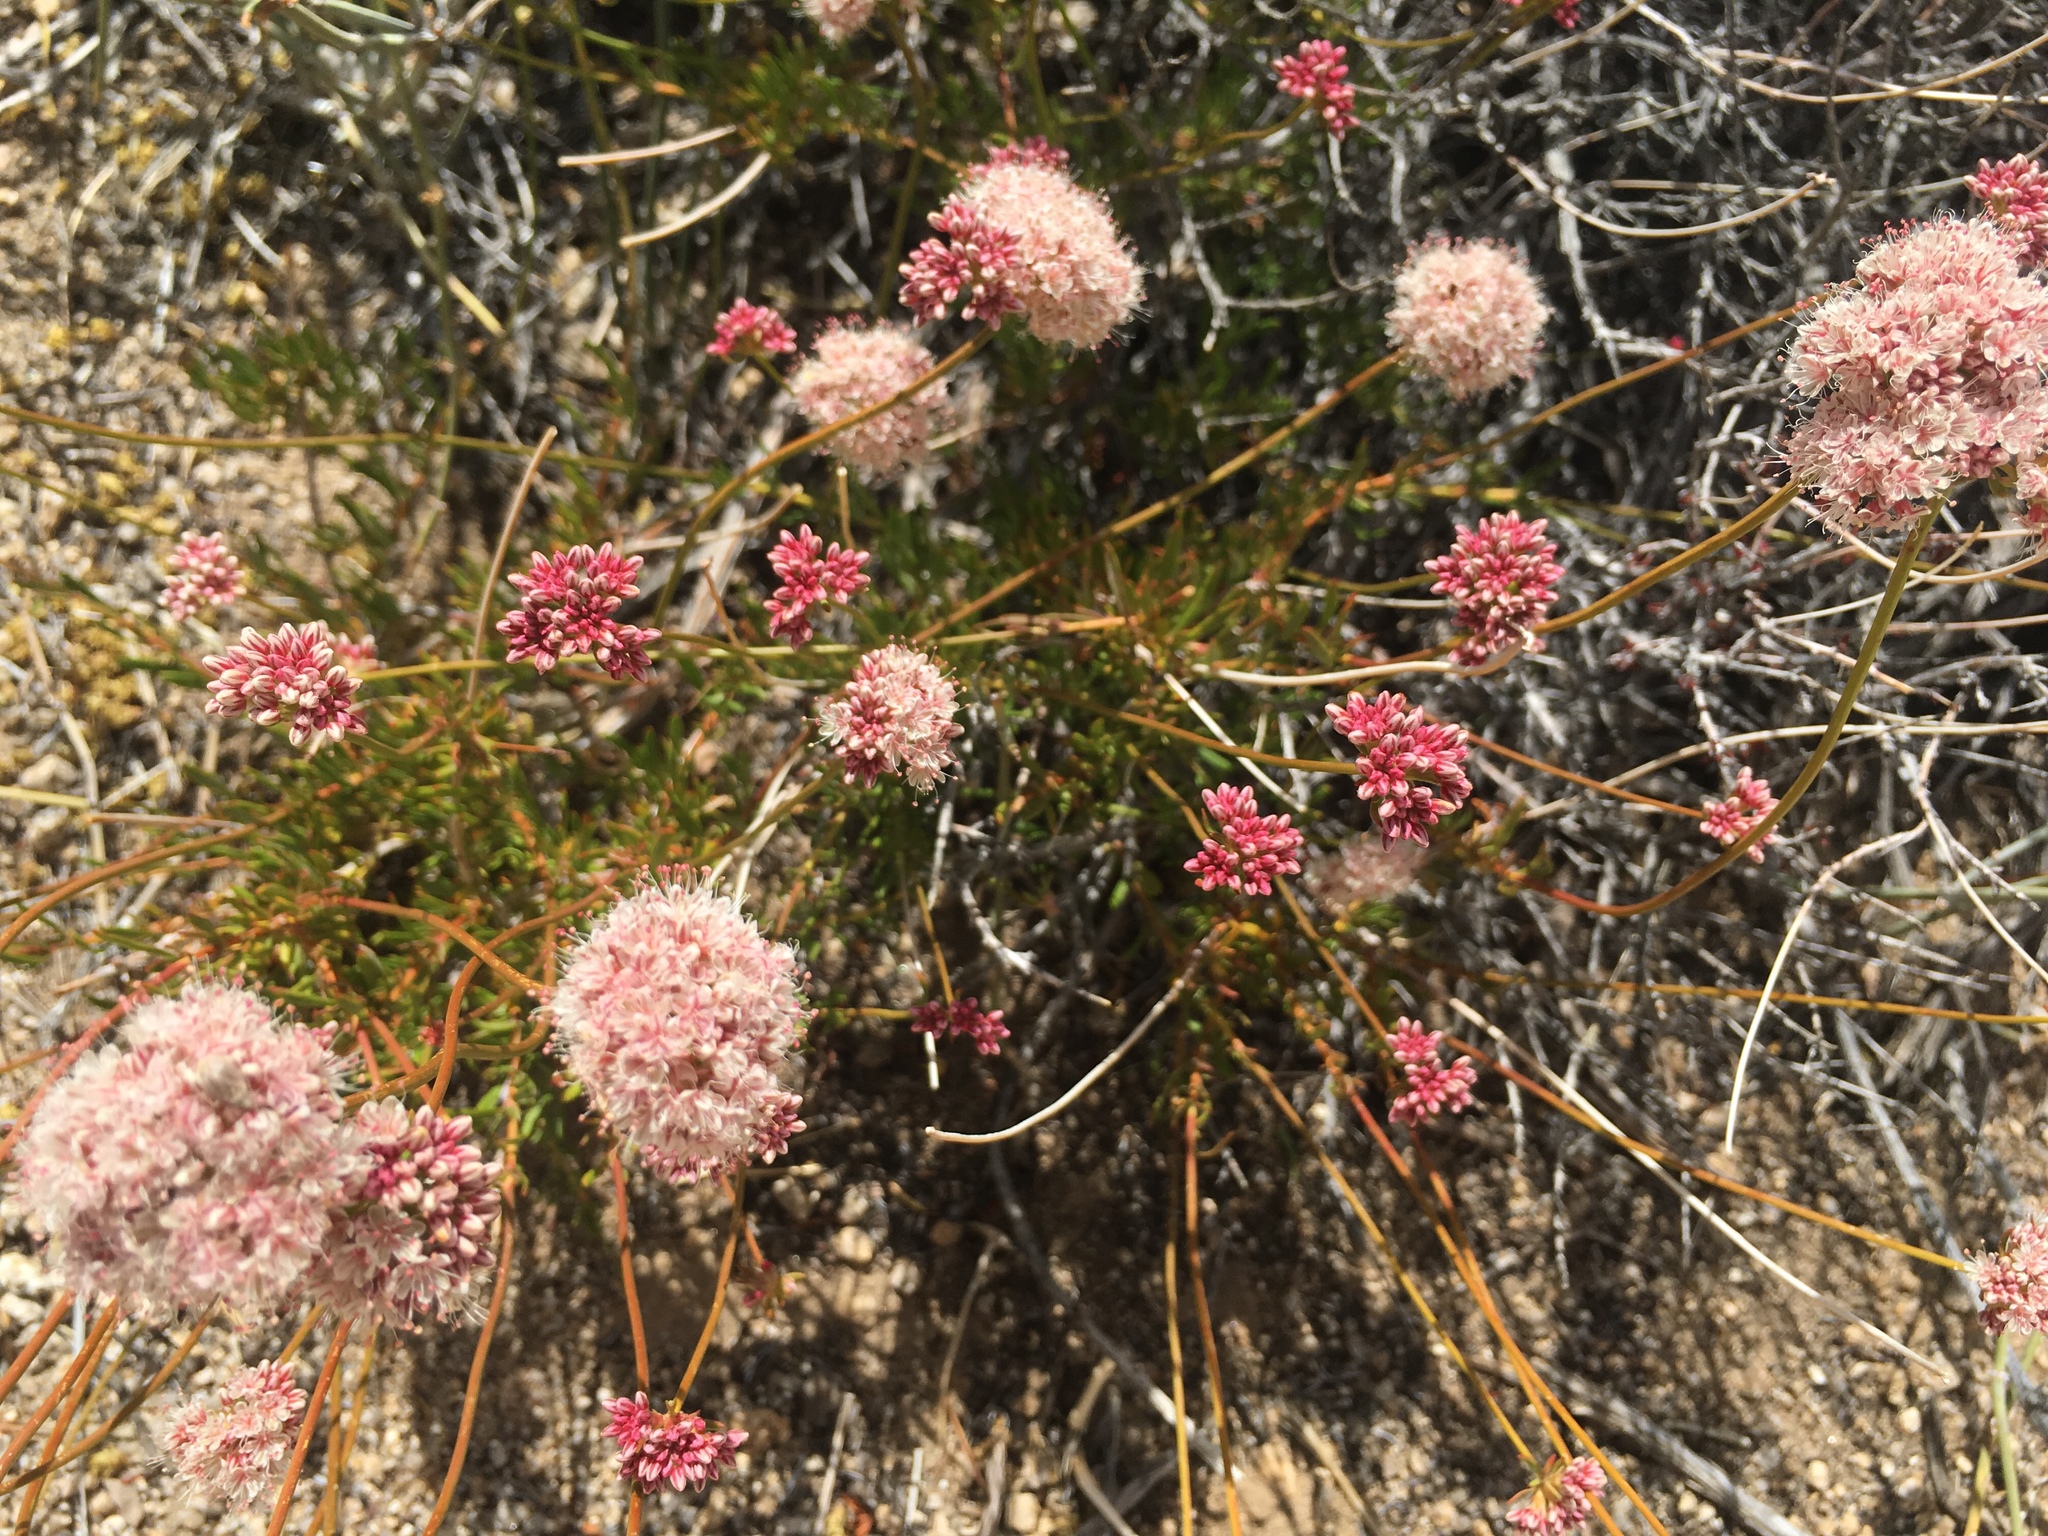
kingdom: Plantae
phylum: Tracheophyta
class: Magnoliopsida
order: Caryophyllales
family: Polygonaceae
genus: Eriogonum
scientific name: Eriogonum fasciculatum
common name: California wild buckwheat
